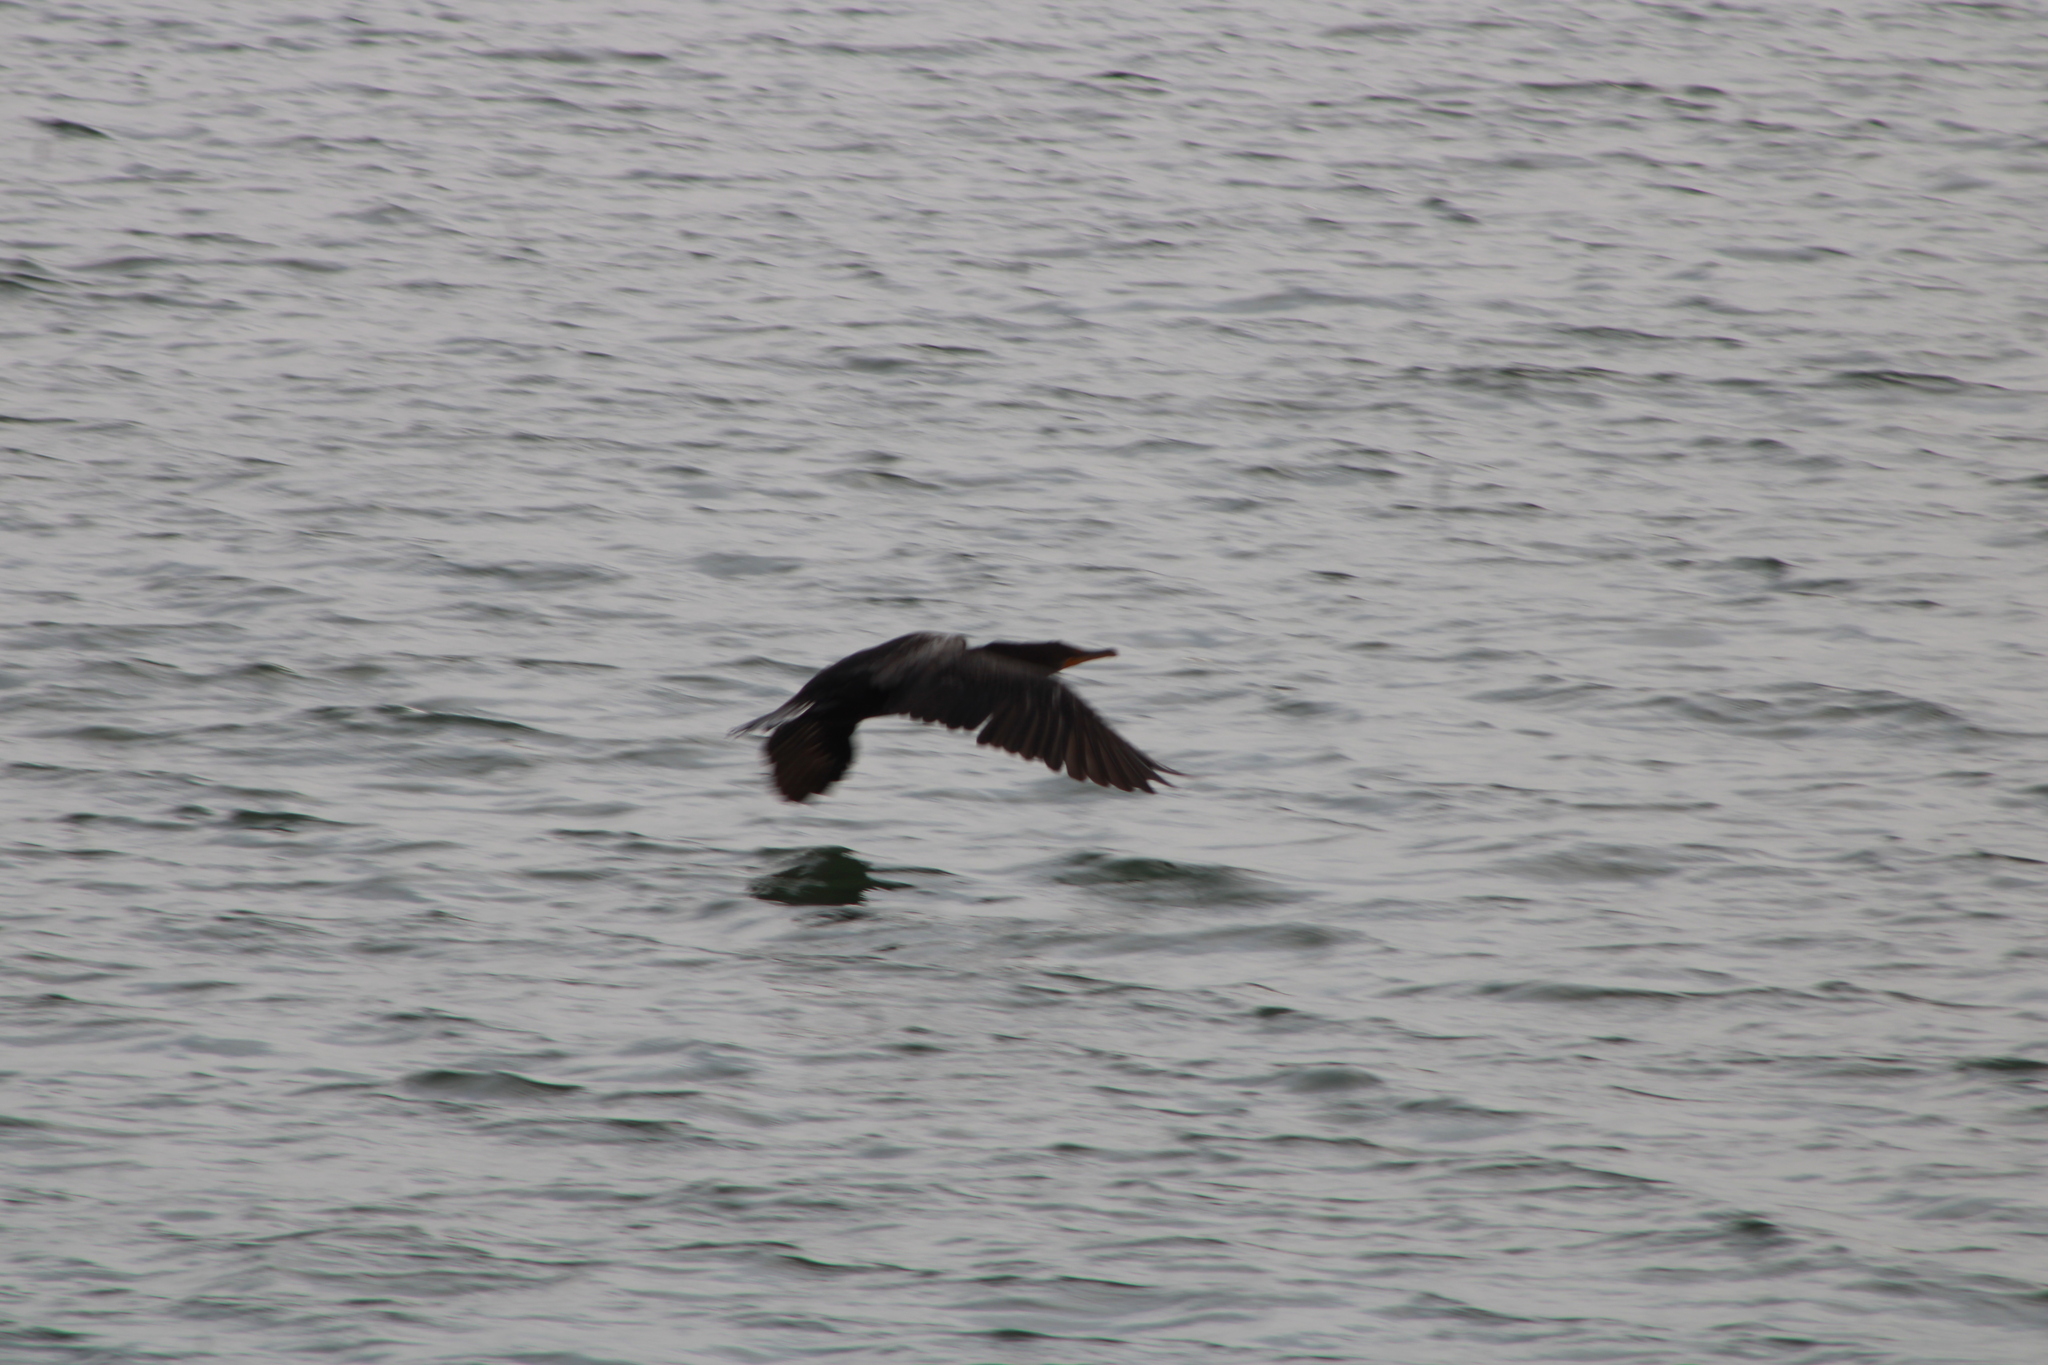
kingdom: Animalia
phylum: Chordata
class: Aves
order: Suliformes
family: Phalacrocoracidae
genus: Phalacrocorax
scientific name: Phalacrocorax auritus
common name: Double-crested cormorant
